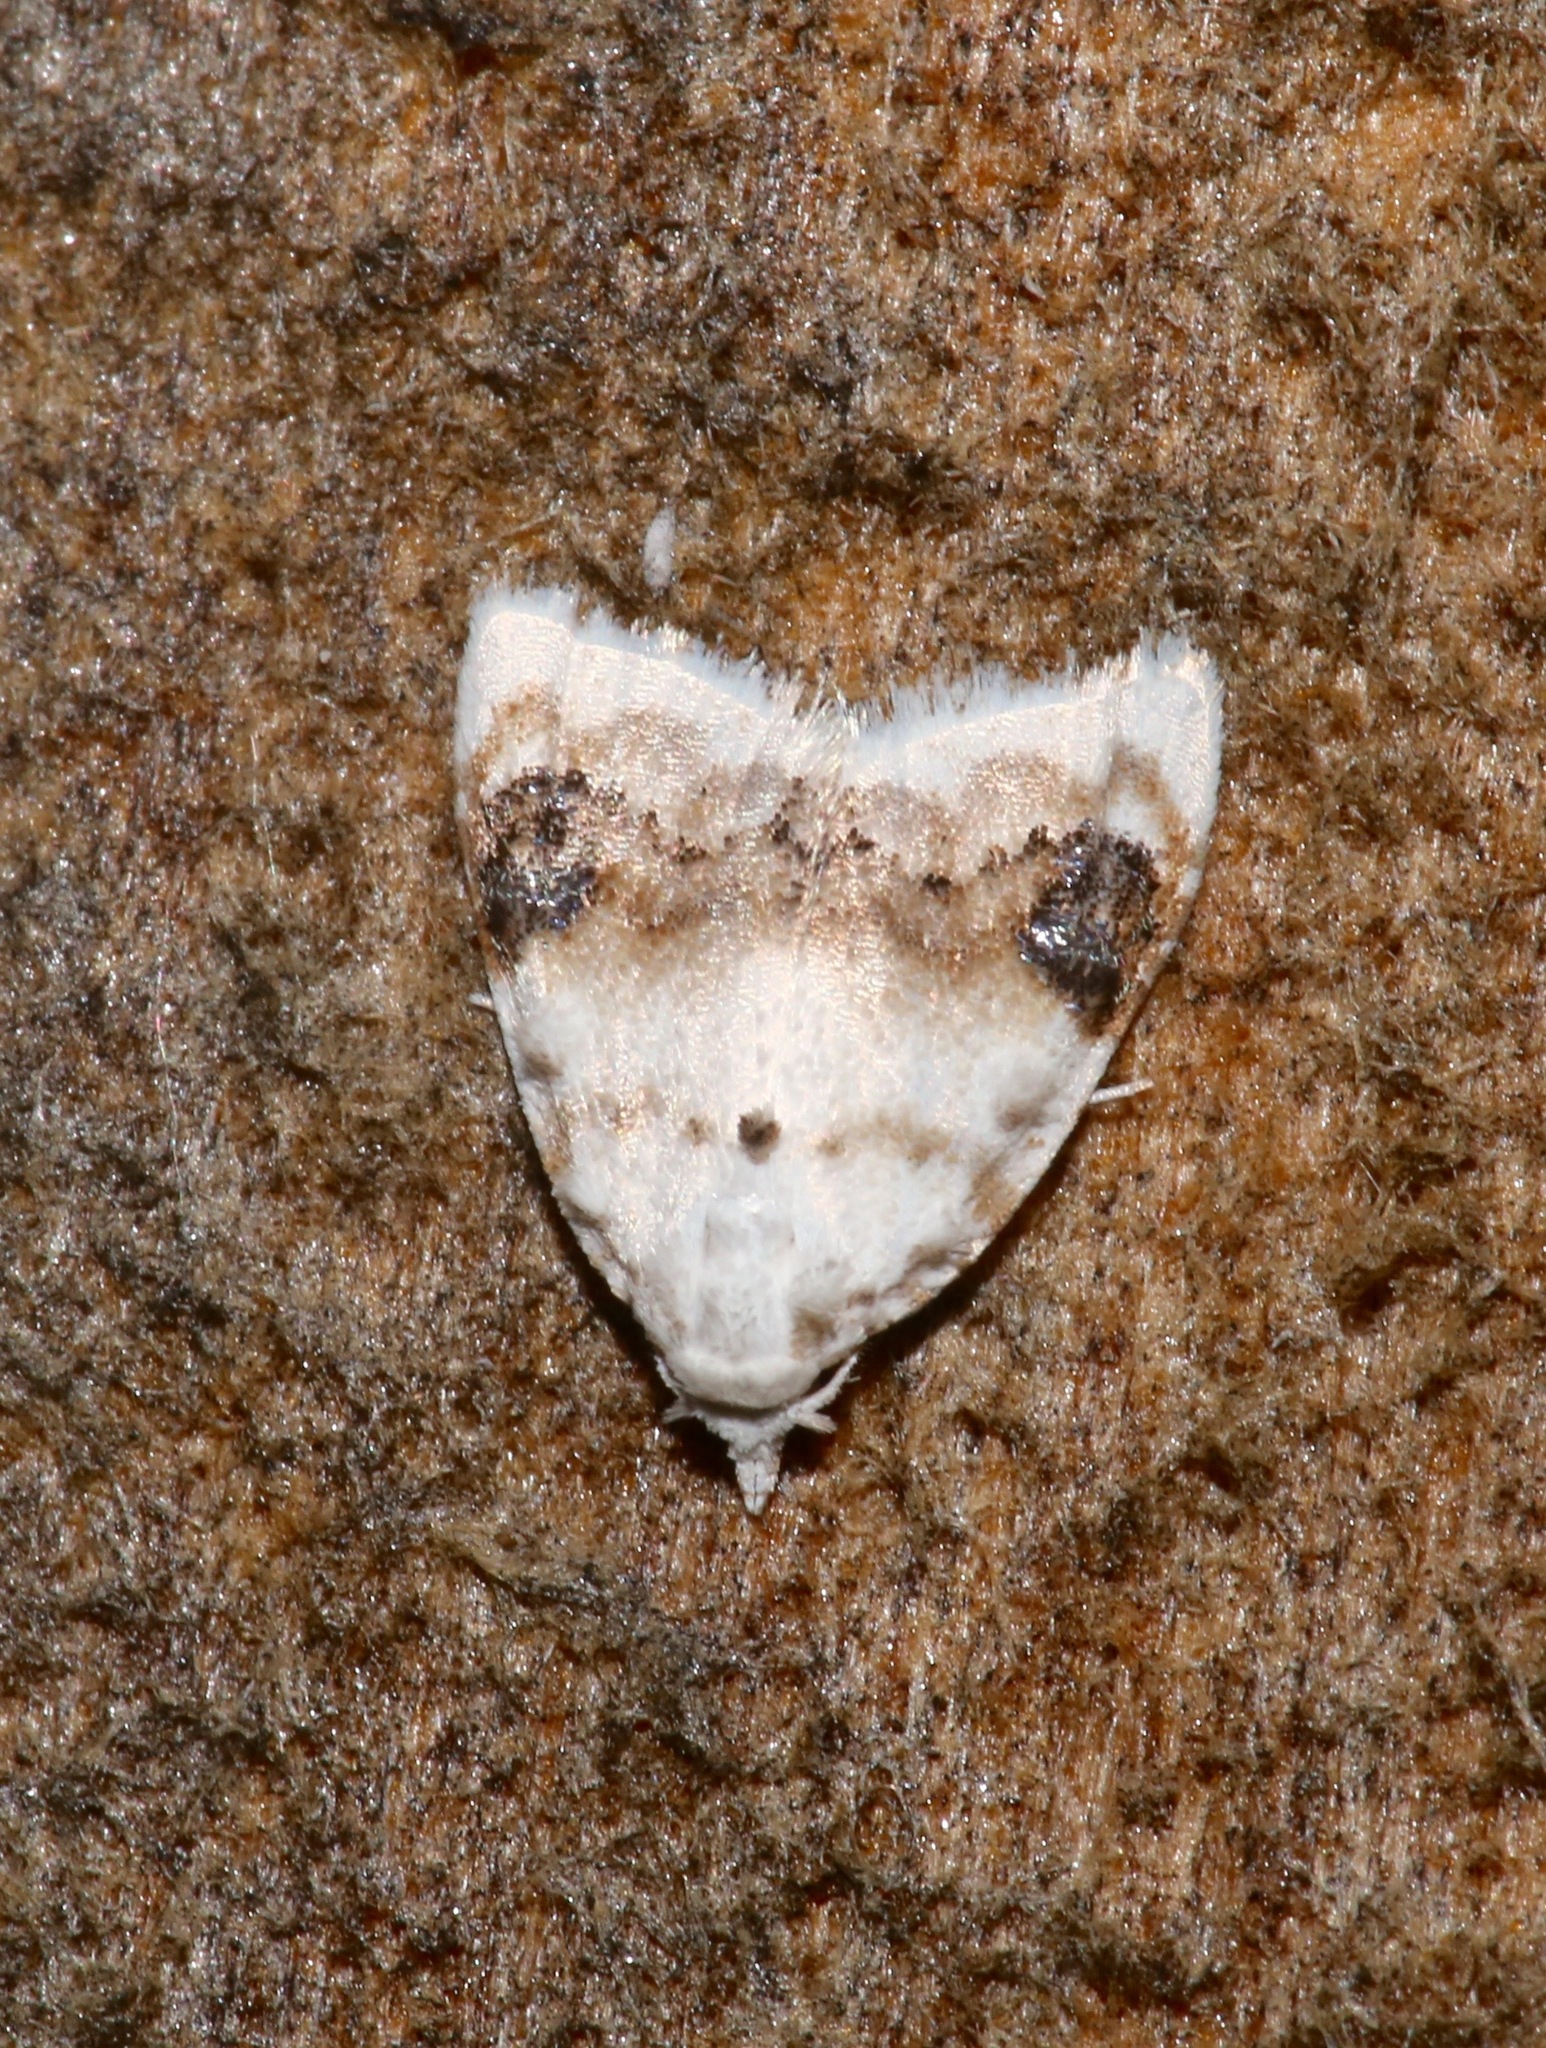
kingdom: Animalia
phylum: Arthropoda
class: Insecta
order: Lepidoptera
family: Nolidae
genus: Nola
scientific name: Nola cilicoides
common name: Blurry-patched nola moth
